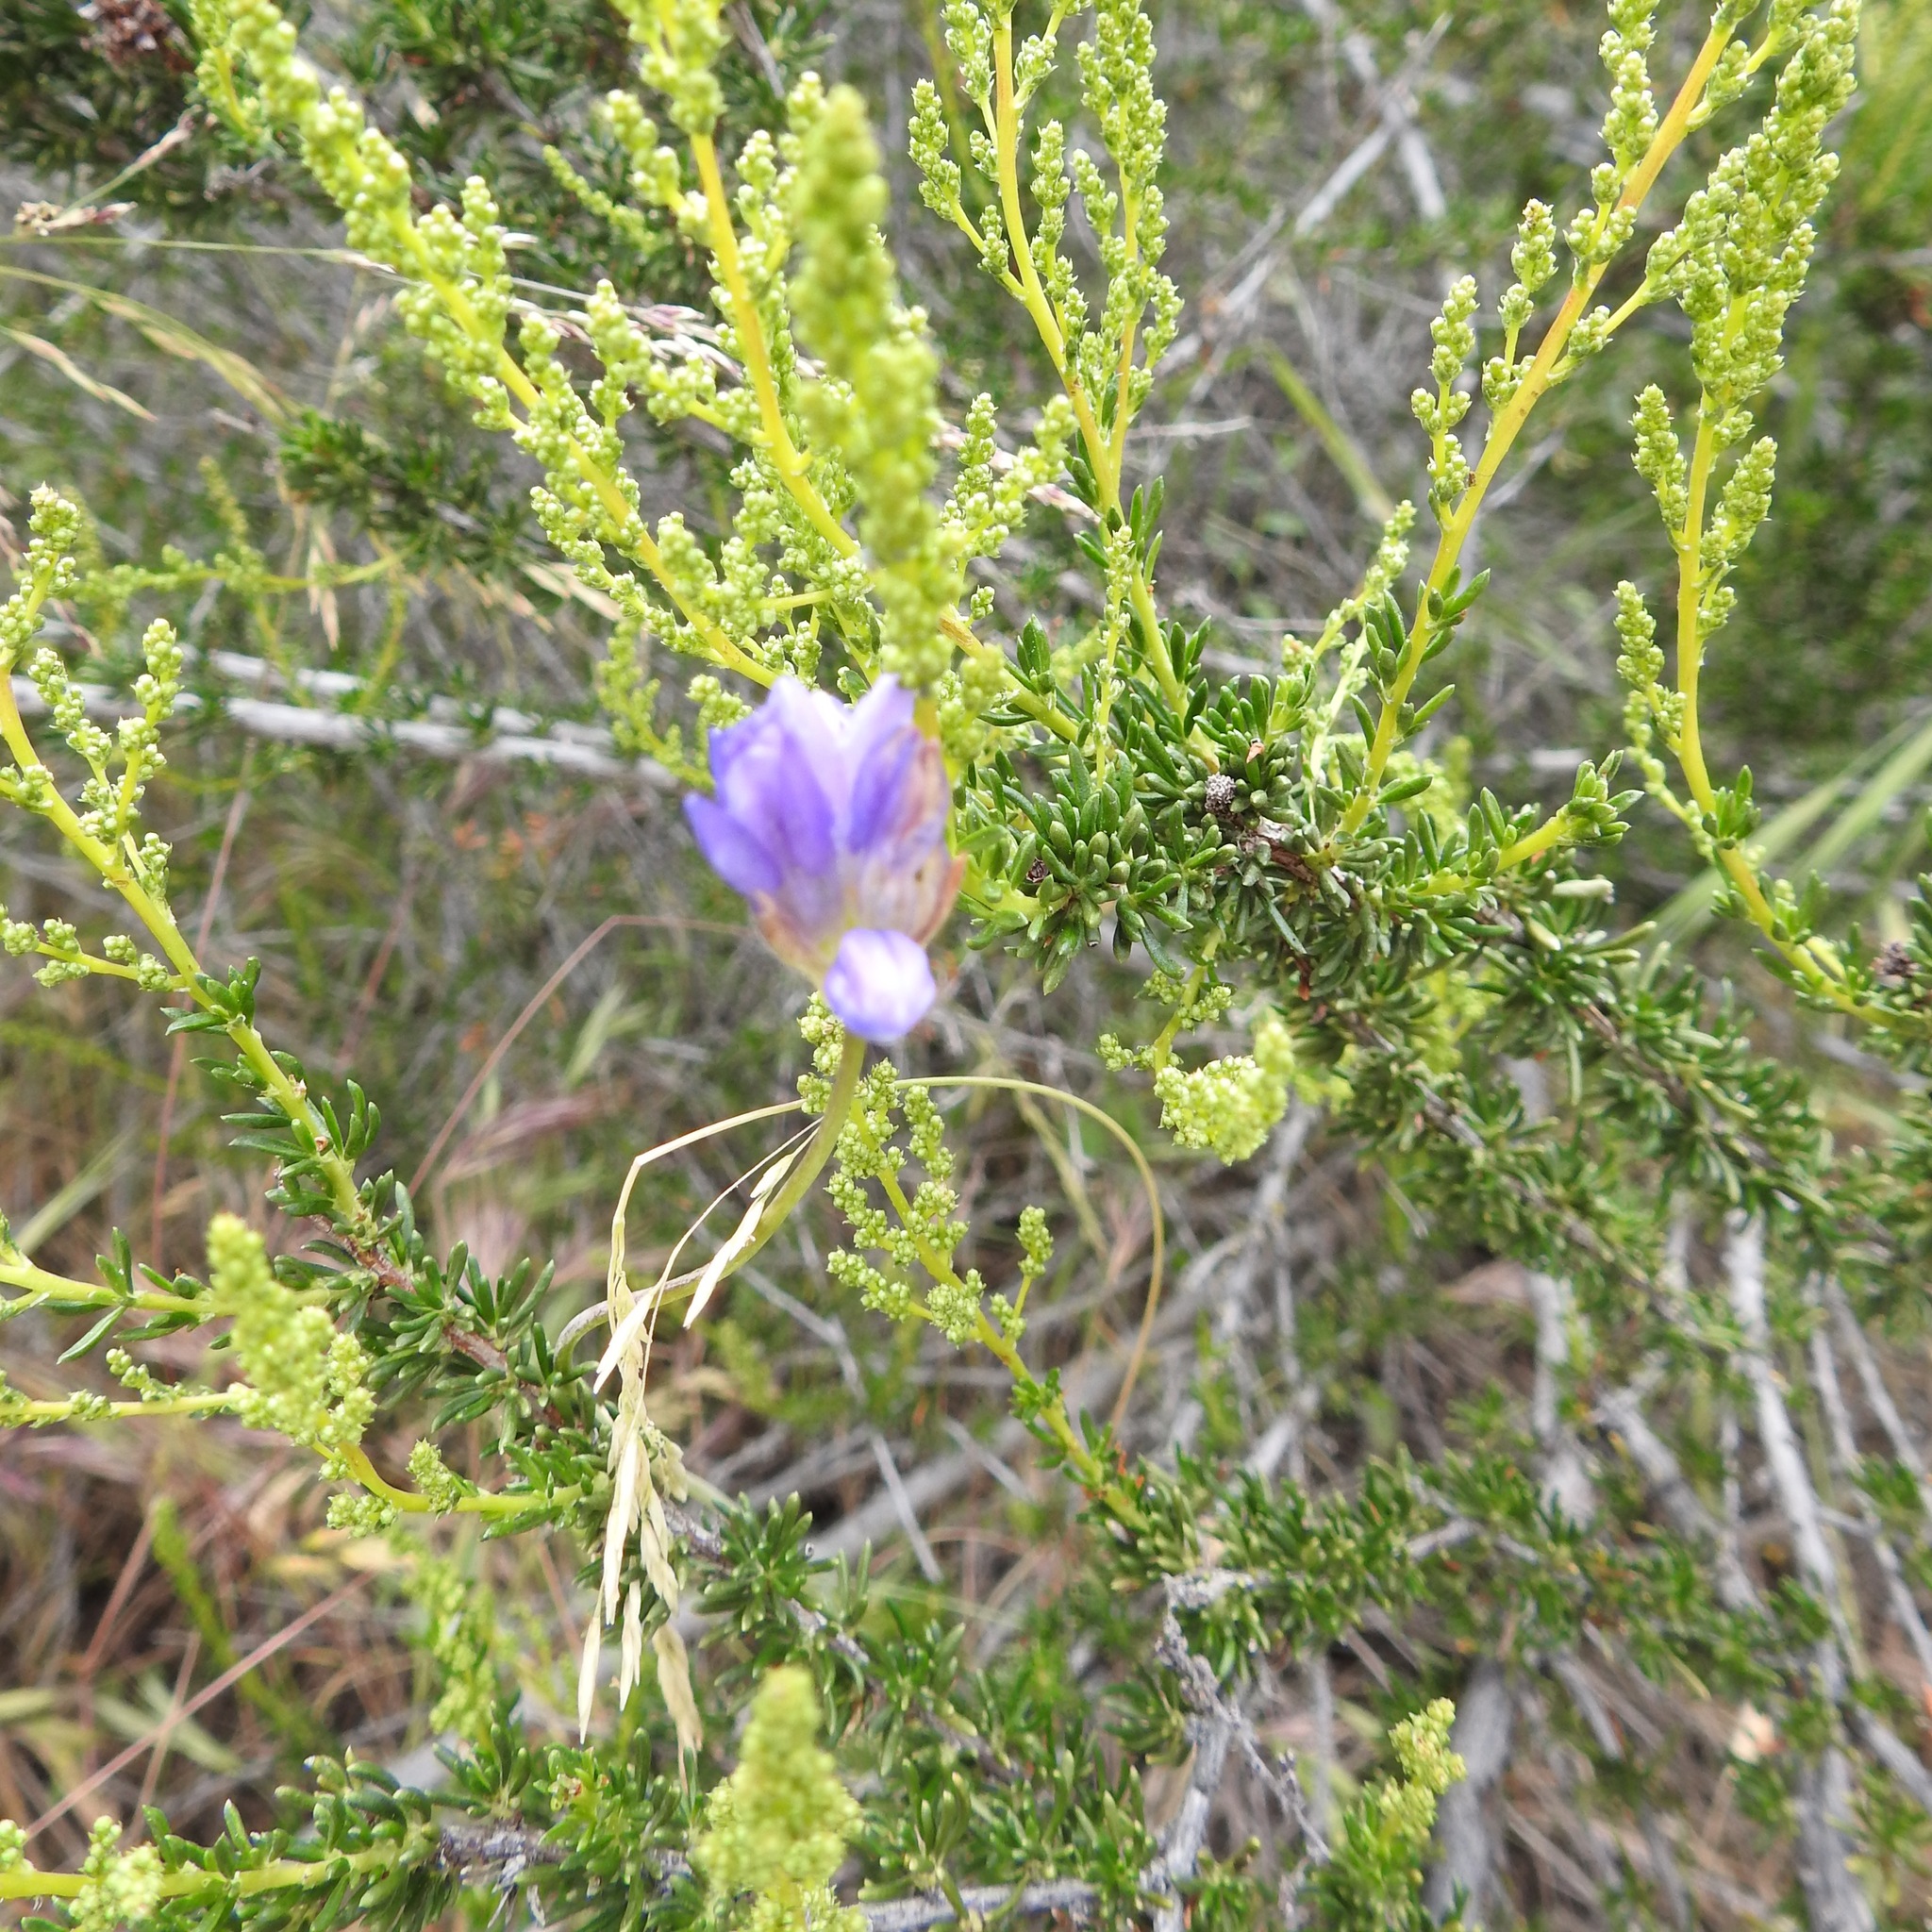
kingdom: Plantae
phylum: Tracheophyta
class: Liliopsida
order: Asparagales
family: Asparagaceae
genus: Dipterostemon
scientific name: Dipterostemon capitatus
